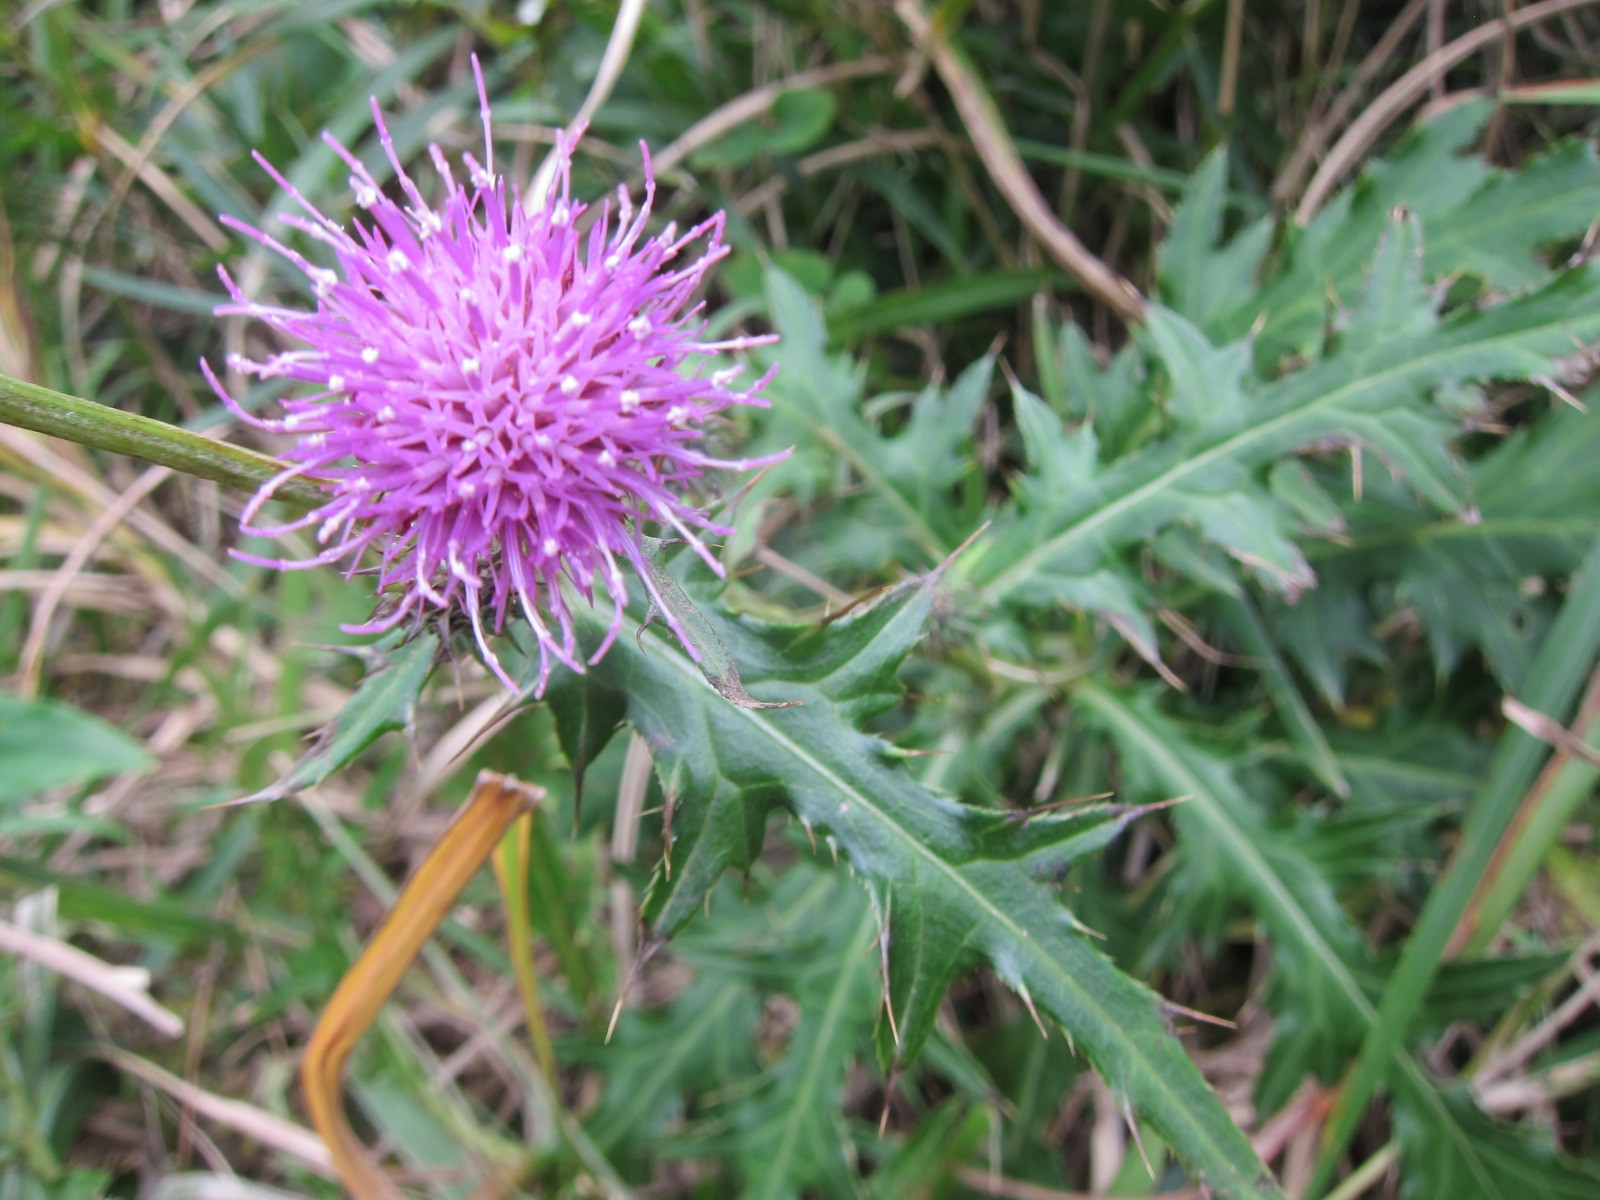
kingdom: Plantae
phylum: Tracheophyta
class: Magnoliopsida
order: Asterales
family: Asteraceae
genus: Cirsium
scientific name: Cirsium nipponicum
